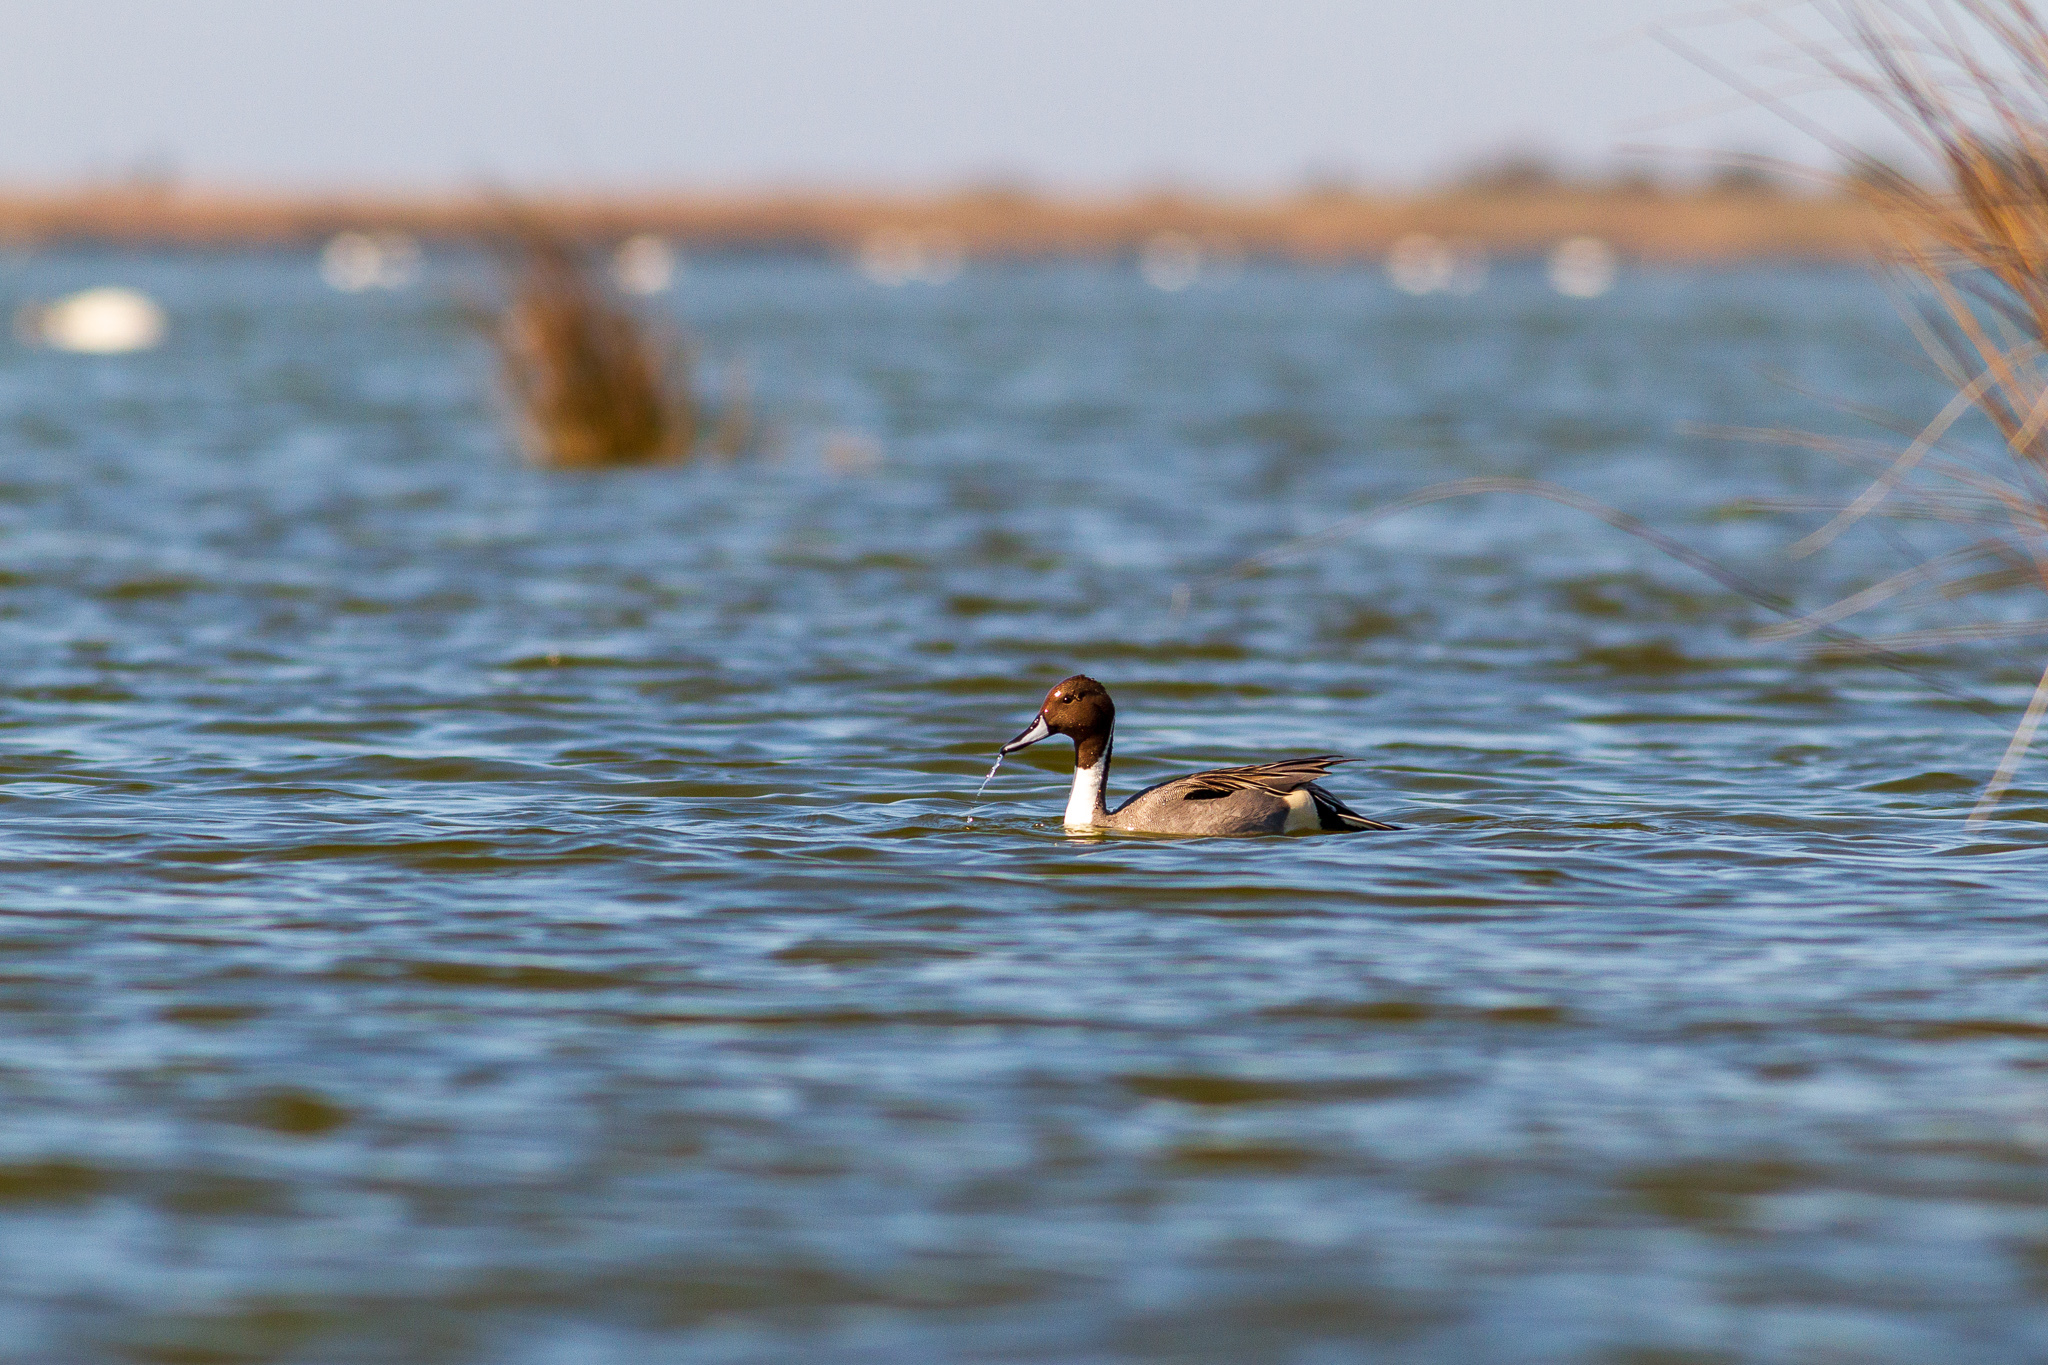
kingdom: Animalia
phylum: Chordata
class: Aves
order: Anseriformes
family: Anatidae
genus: Anas
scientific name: Anas acuta
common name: Northern pintail
